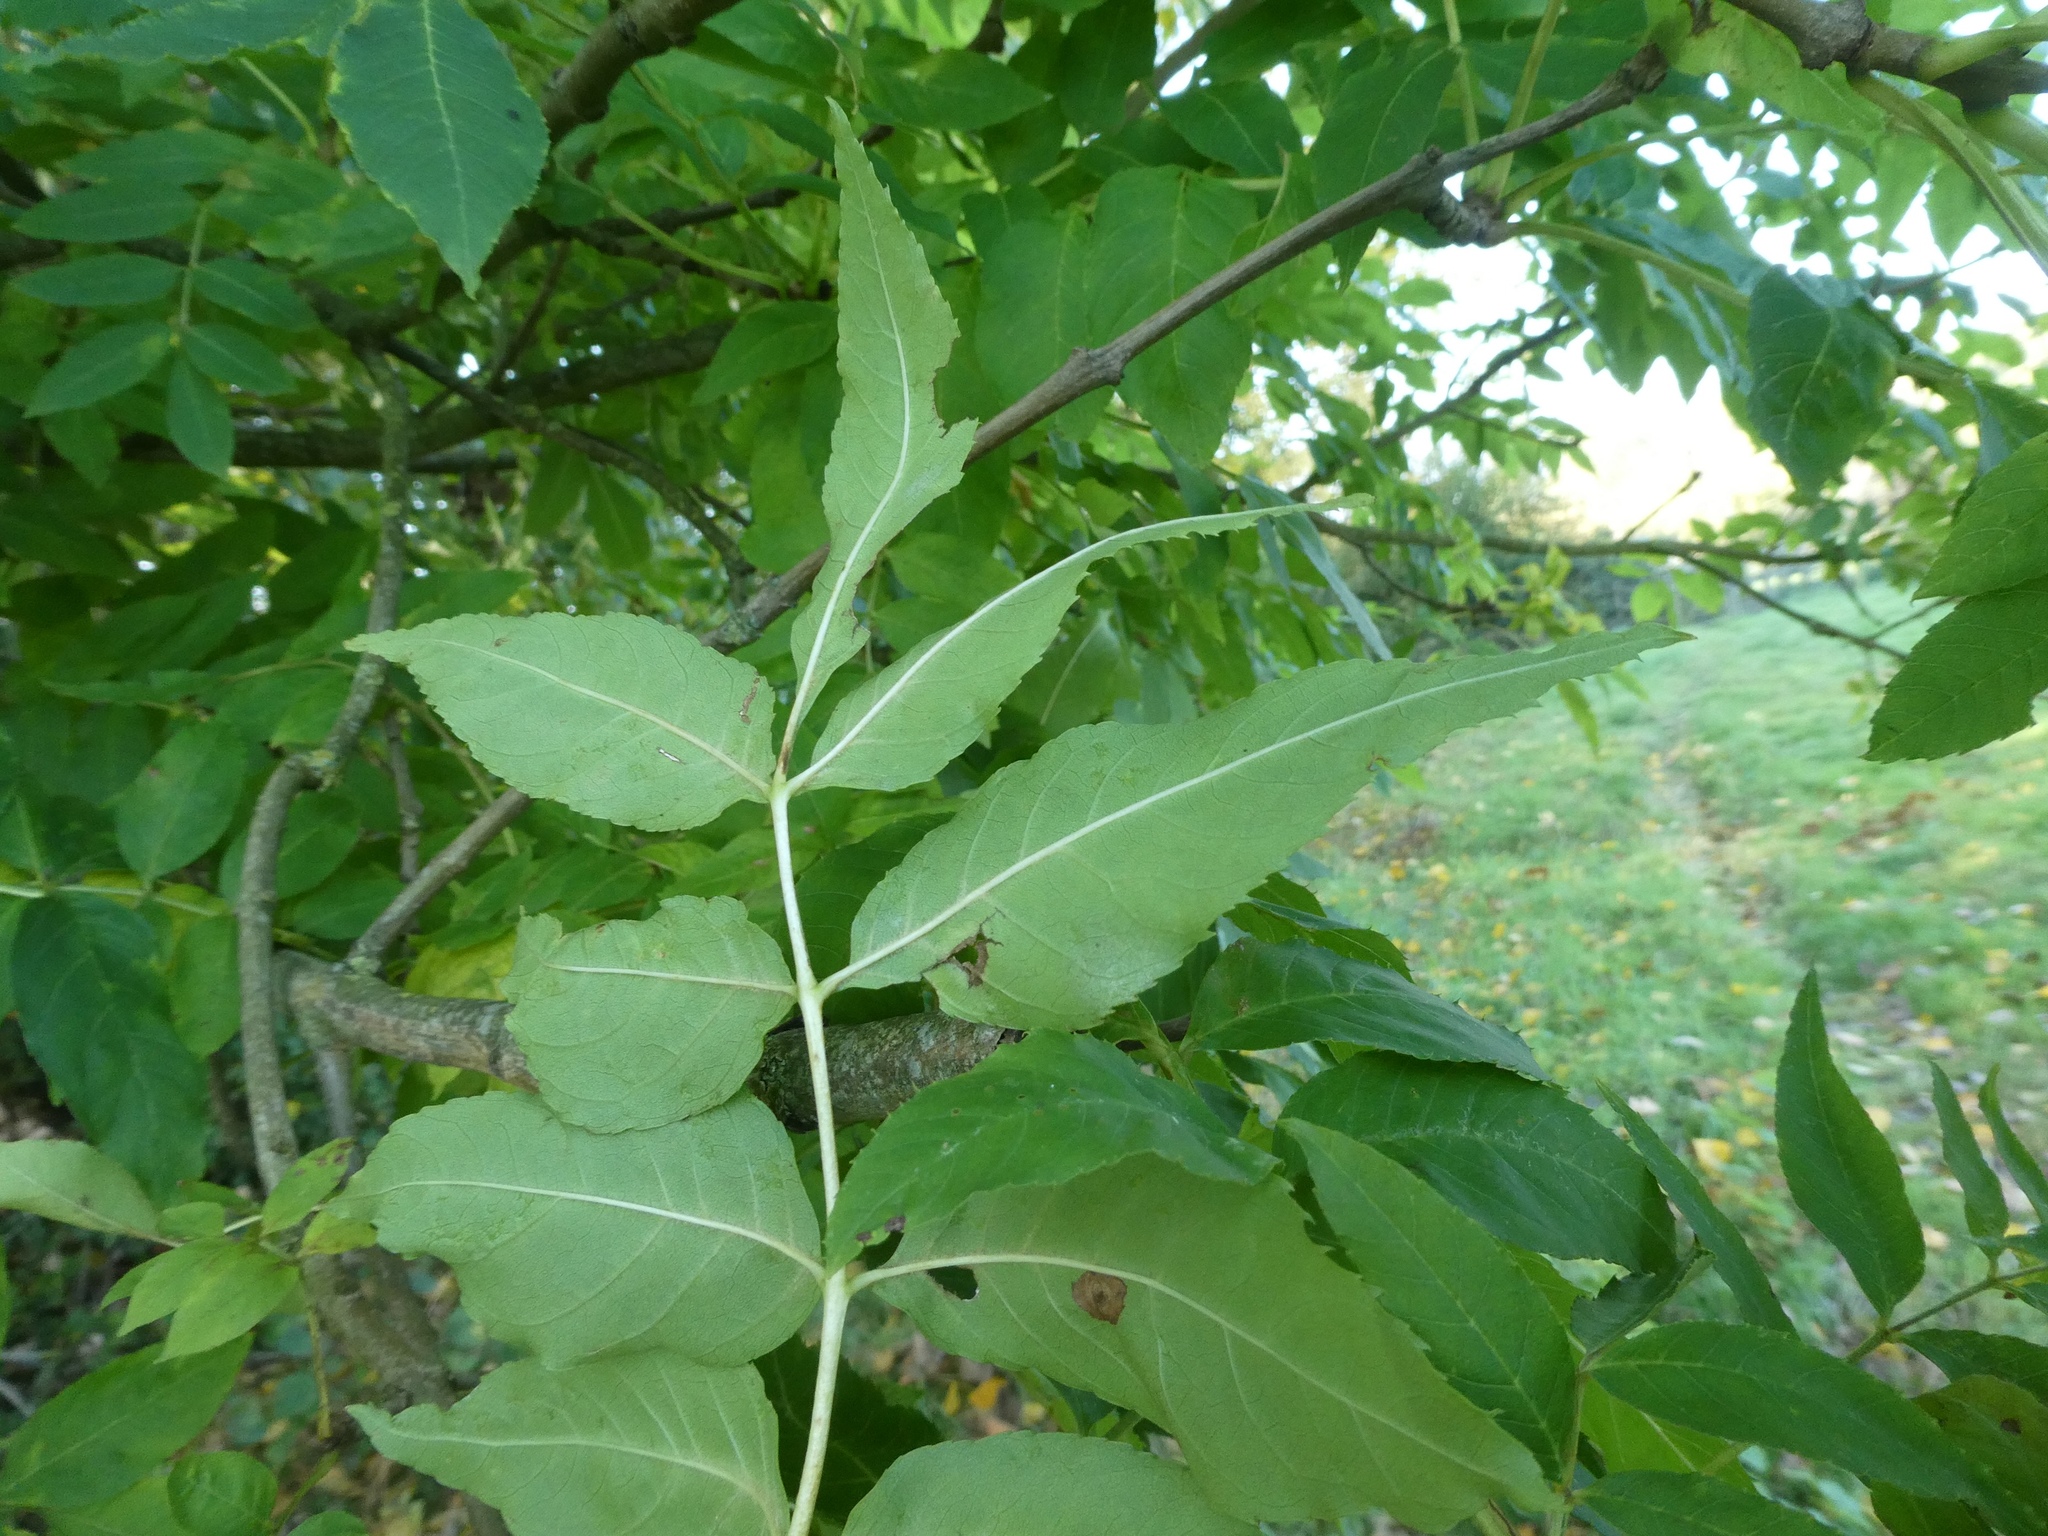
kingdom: Plantae
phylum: Tracheophyta
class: Magnoliopsida
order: Lamiales
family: Oleaceae
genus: Fraxinus
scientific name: Fraxinus excelsior
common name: European ash
